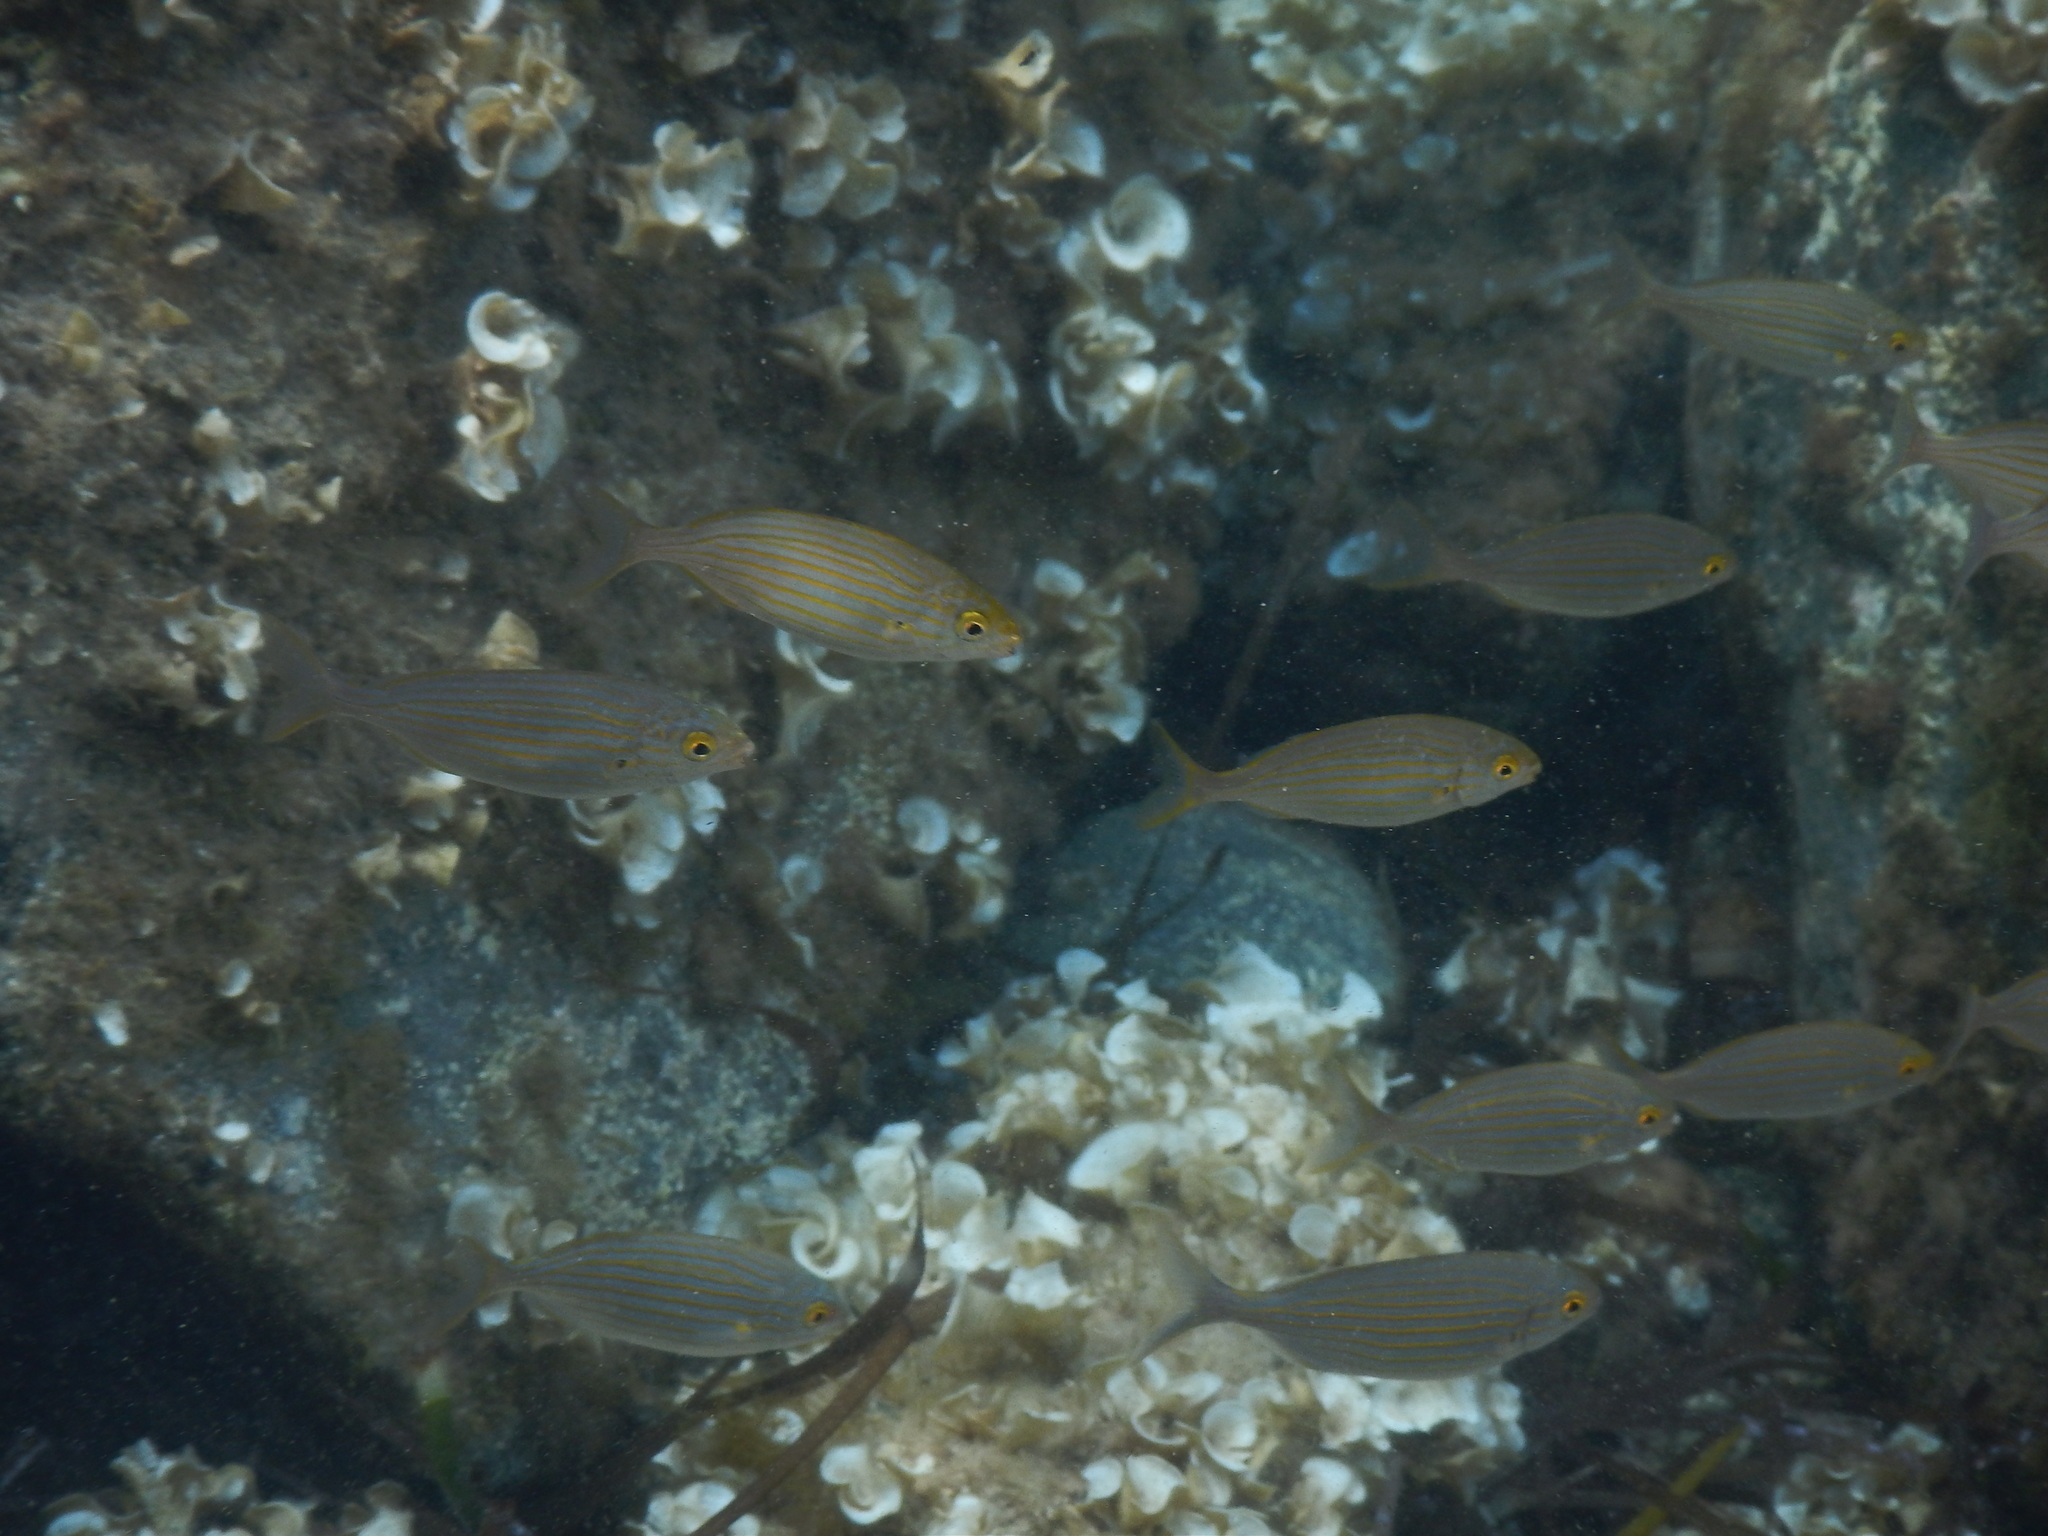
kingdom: Animalia
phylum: Chordata
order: Perciformes
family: Sparidae
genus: Sarpa
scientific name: Sarpa salpa
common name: Salema
